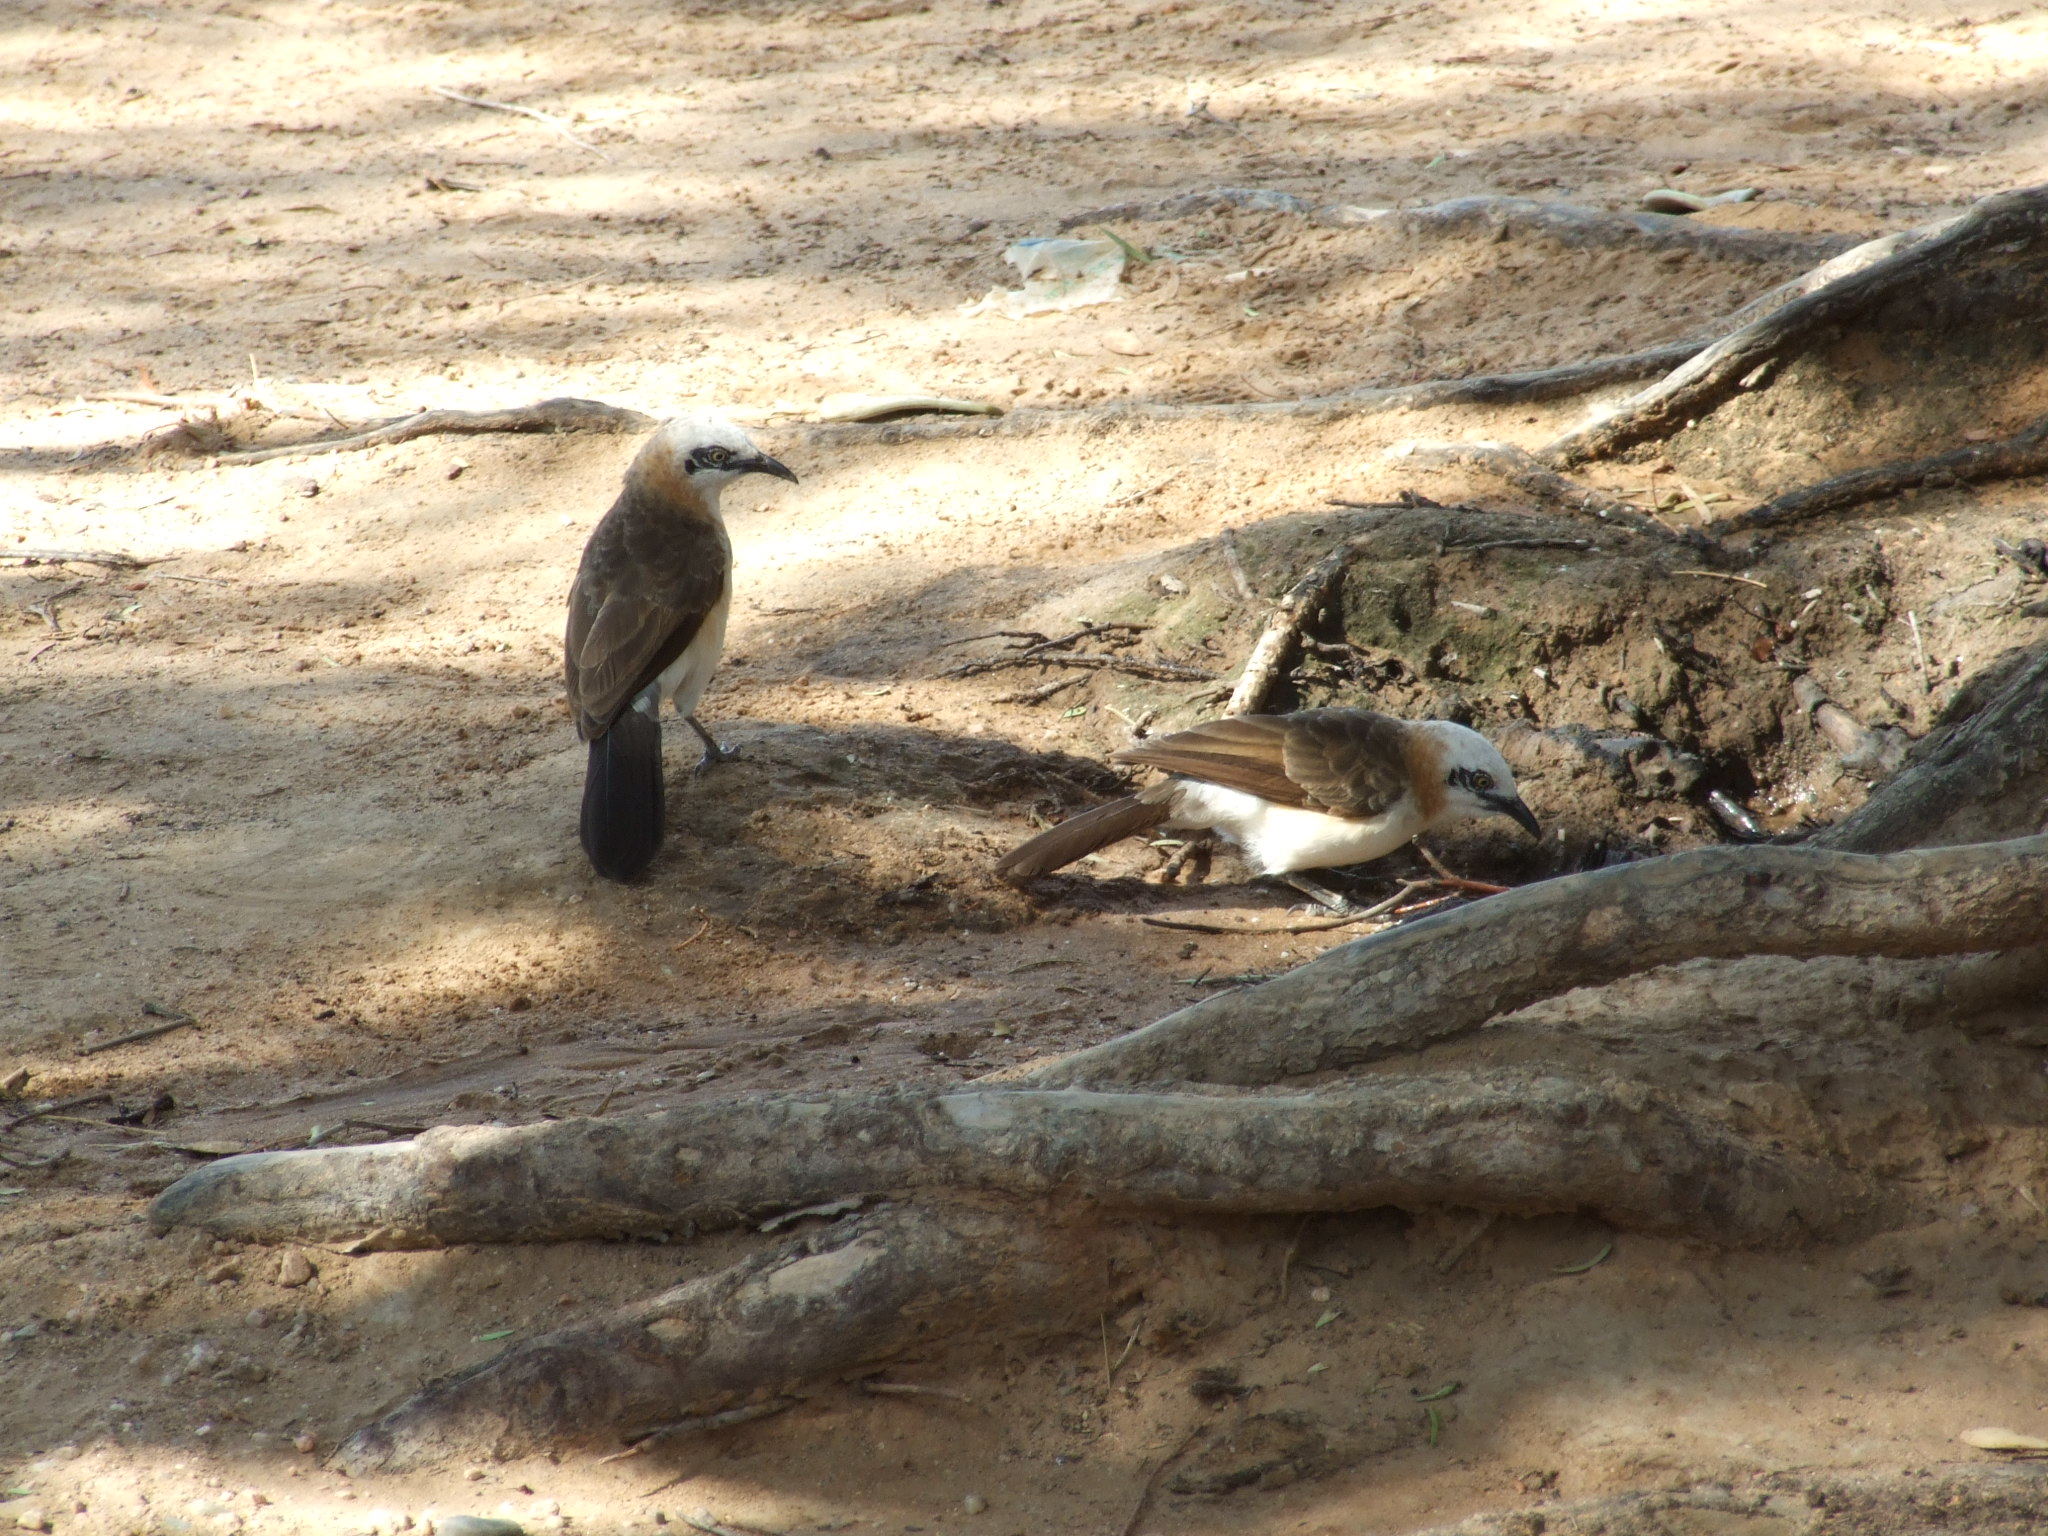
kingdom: Animalia
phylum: Chordata
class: Aves
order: Passeriformes
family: Leiothrichidae
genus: Turdoides
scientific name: Turdoides gymnogenys
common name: Bare-cheeked babbler
